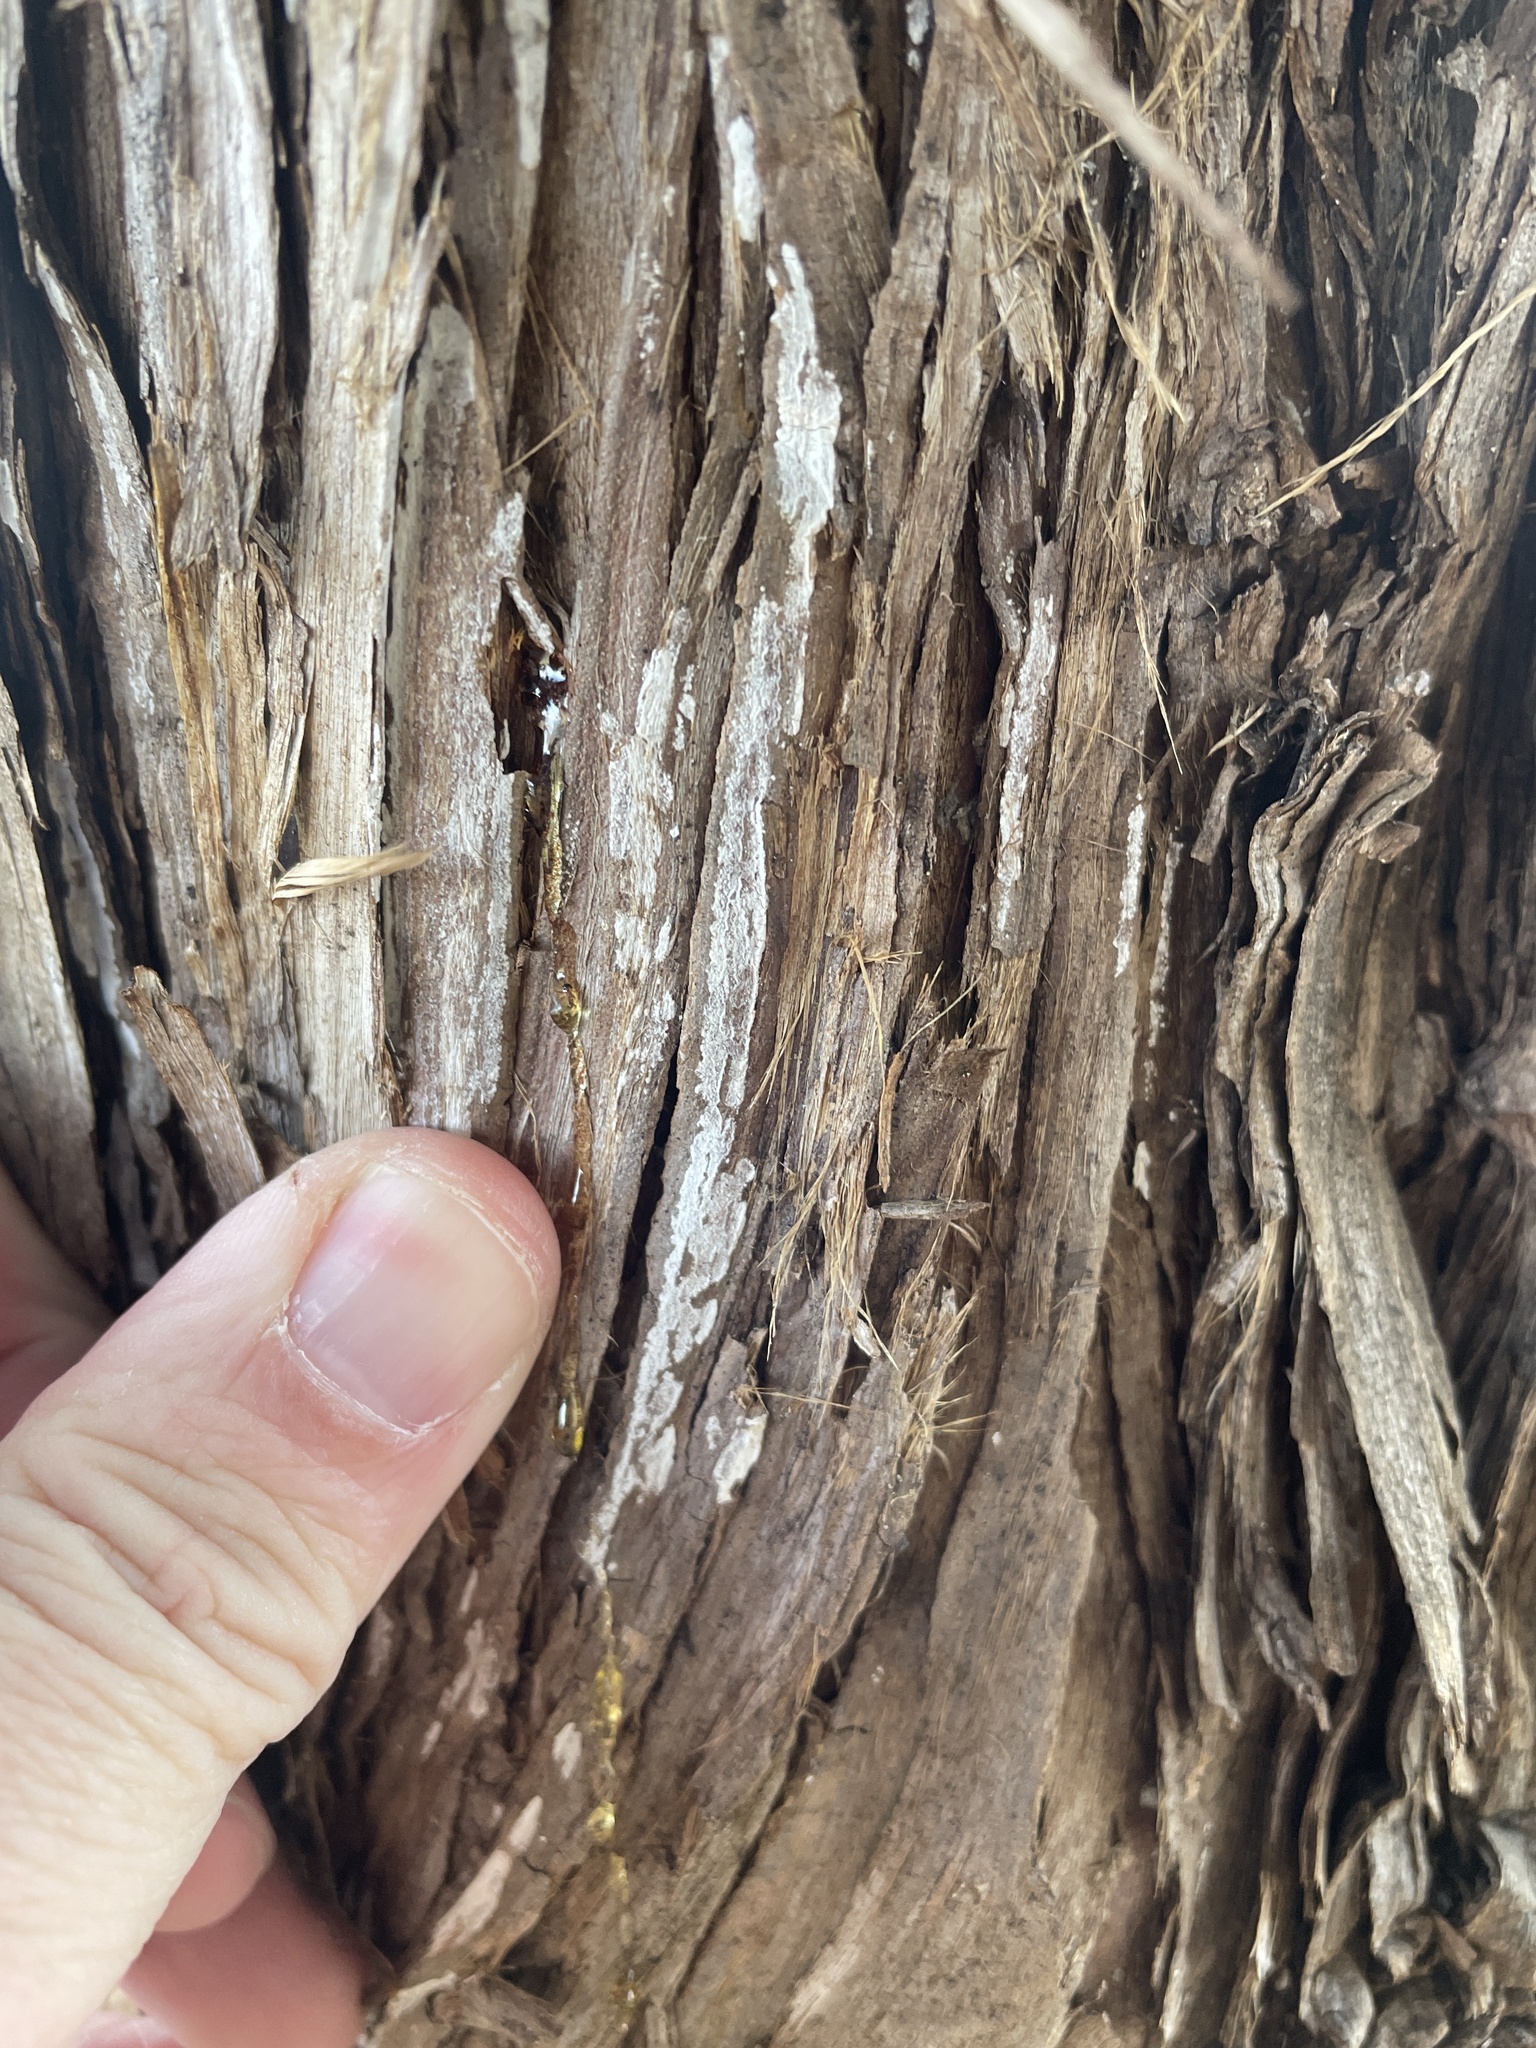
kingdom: Fungi
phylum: Basidiomycota
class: Agaricomycetes
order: Agaricales
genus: Dendrothele
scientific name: Dendrothele nivosa
